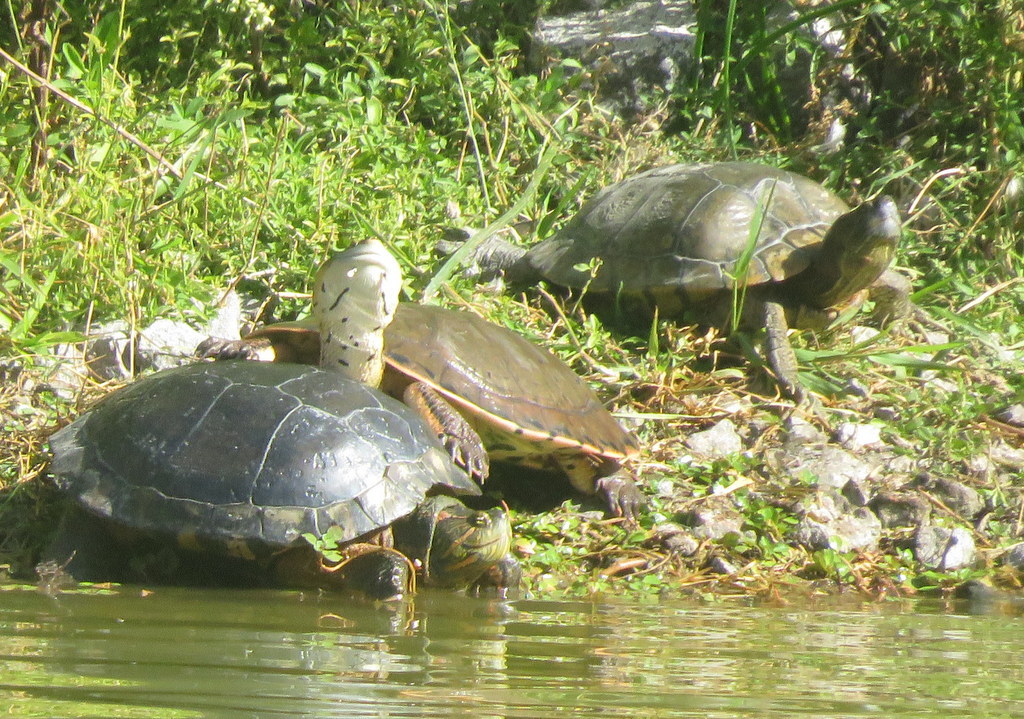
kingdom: Animalia
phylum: Chordata
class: Testudines
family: Chelidae
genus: Phrynops
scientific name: Phrynops hilarii
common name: Side-necked turtle of saint hillaire
